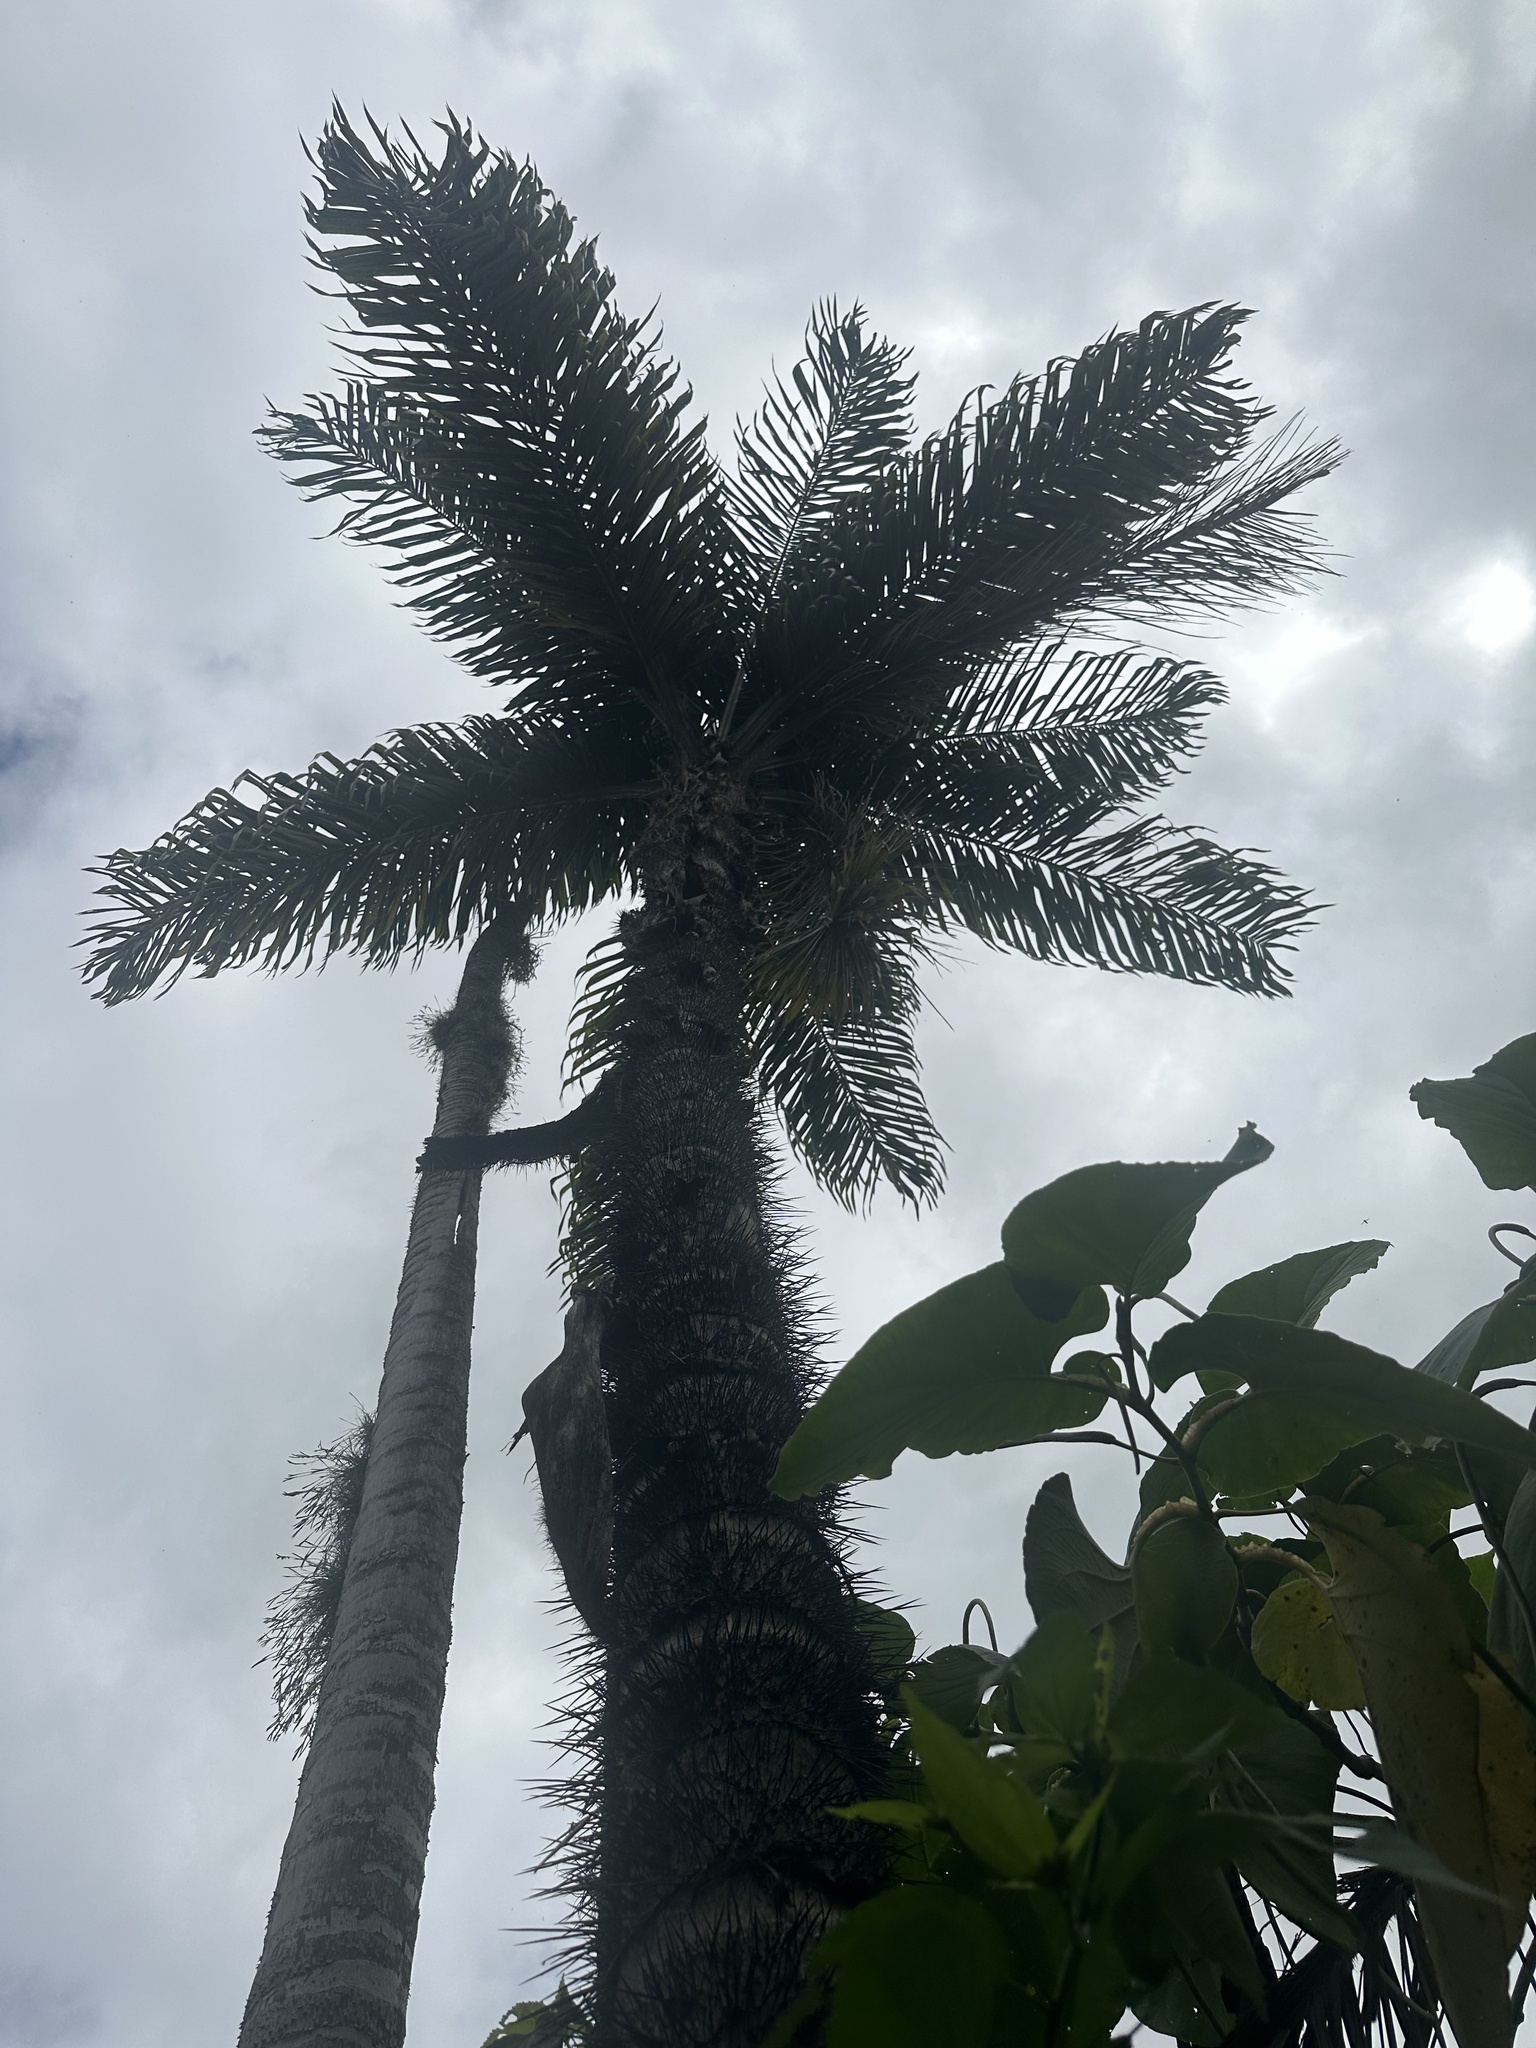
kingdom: Plantae
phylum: Tracheophyta
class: Liliopsida
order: Arecales
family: Arecaceae
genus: Bactris
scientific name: Bactris gasipaes
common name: Peach palm
